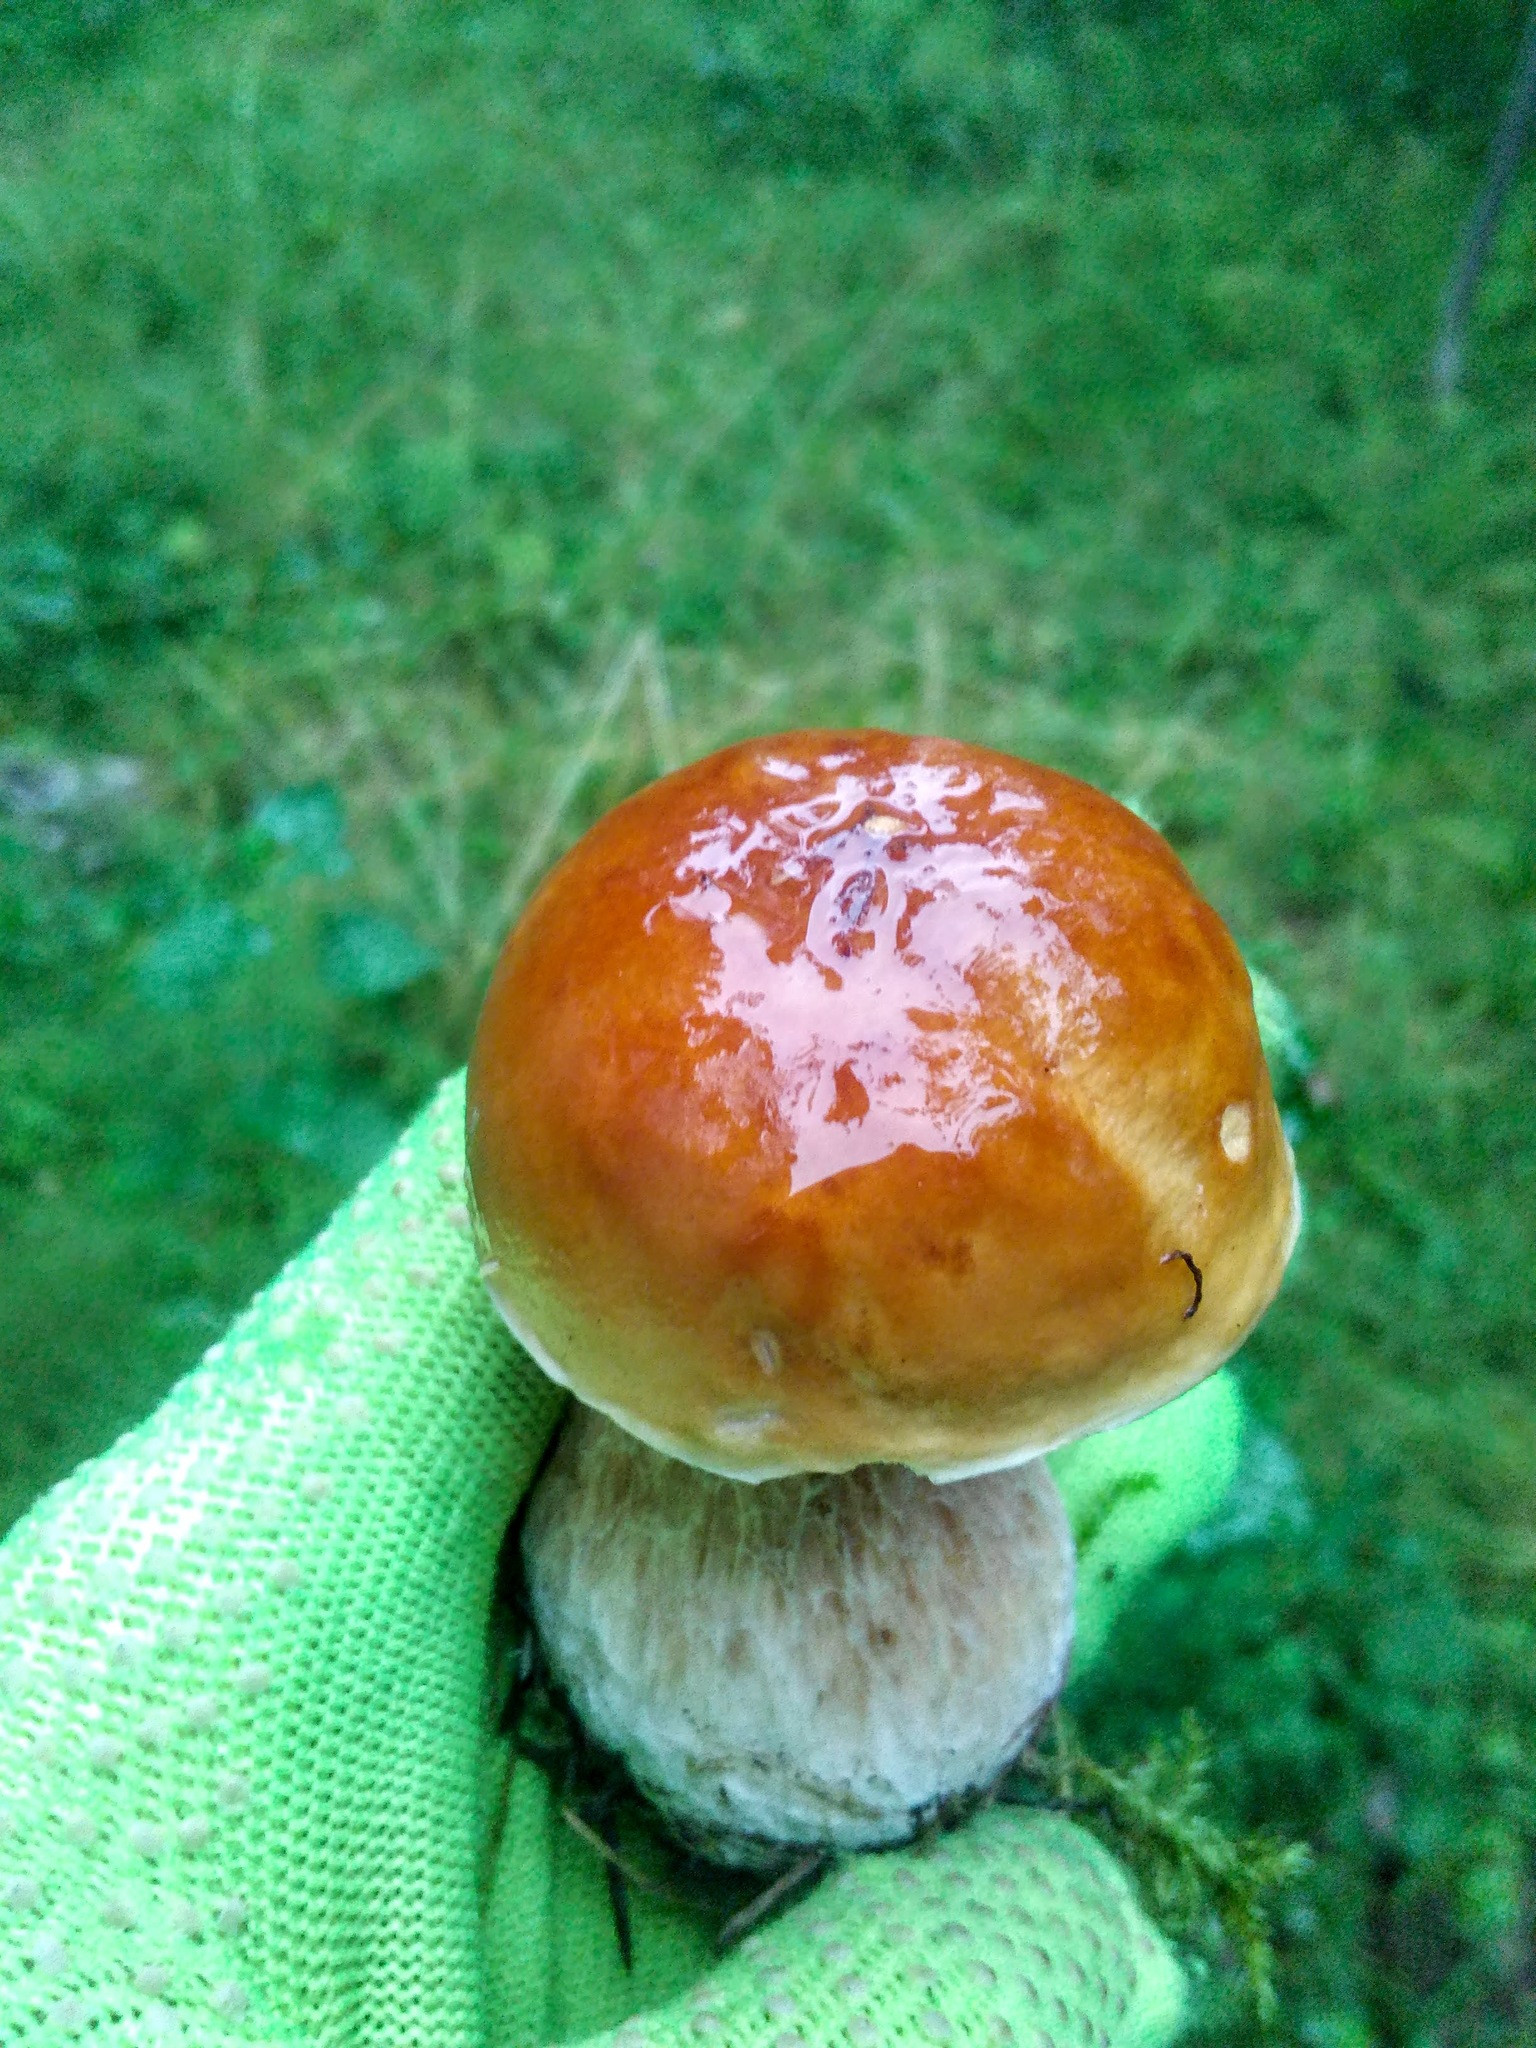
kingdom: Fungi
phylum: Basidiomycota
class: Agaricomycetes
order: Boletales
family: Boletaceae
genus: Boletus
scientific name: Boletus edulis
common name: Cep
